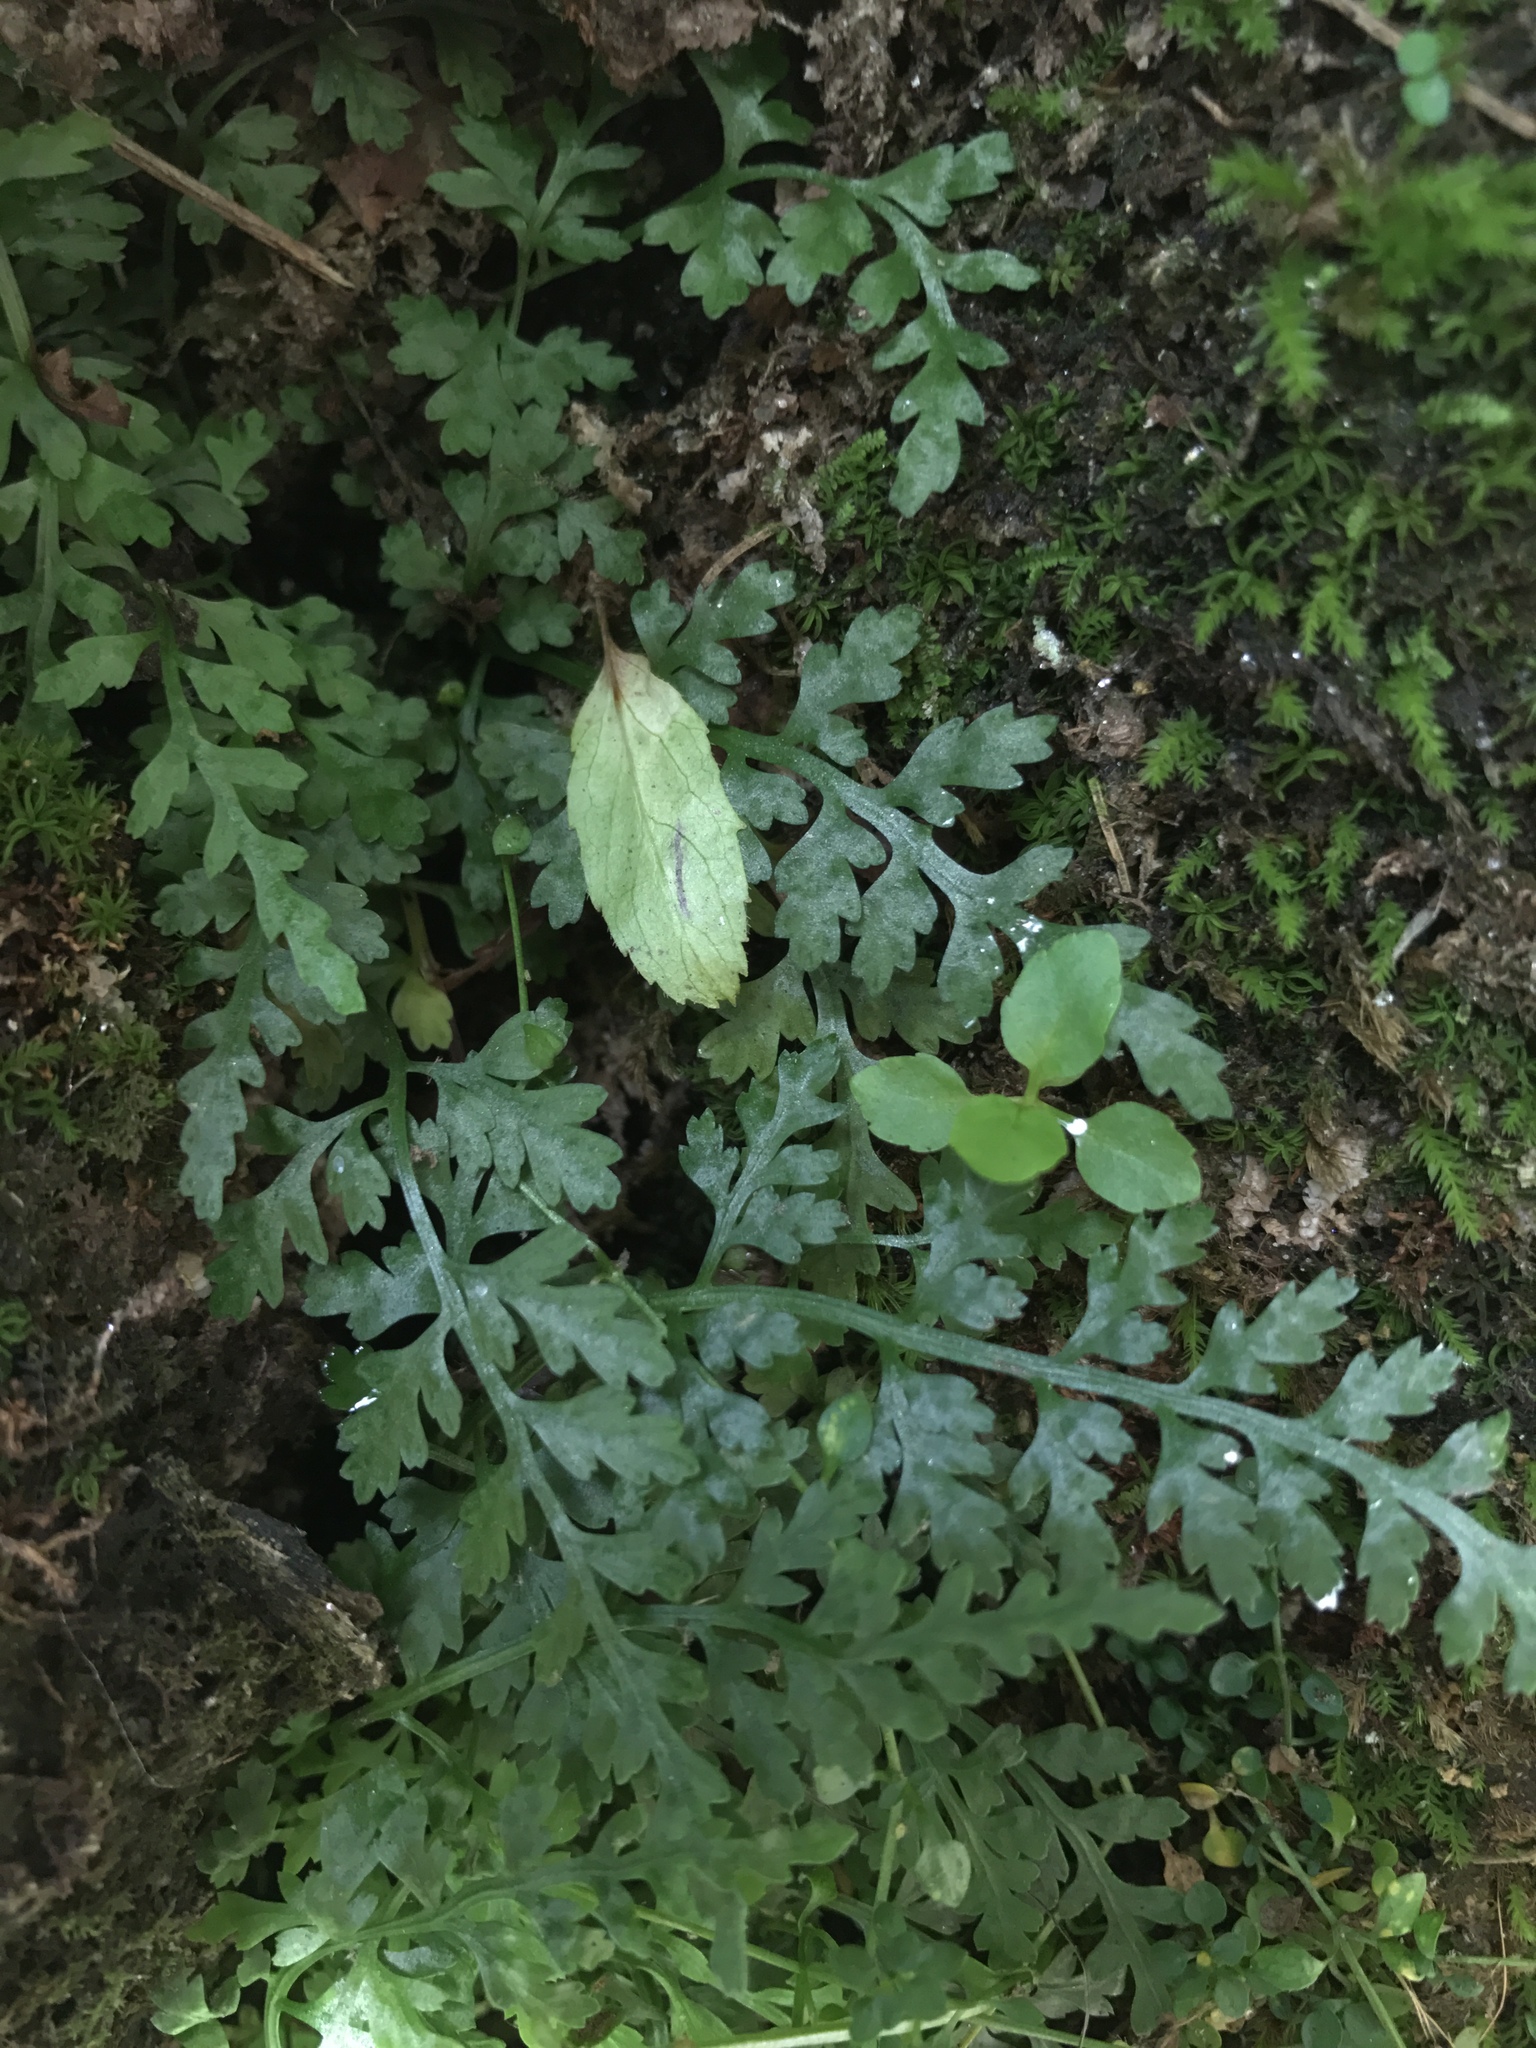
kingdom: Plantae
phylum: Tracheophyta
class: Polypodiopsida
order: Polypodiales
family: Aspleniaceae
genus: Asplenium
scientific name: Asplenium montanum
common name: Mountain spleenwort
